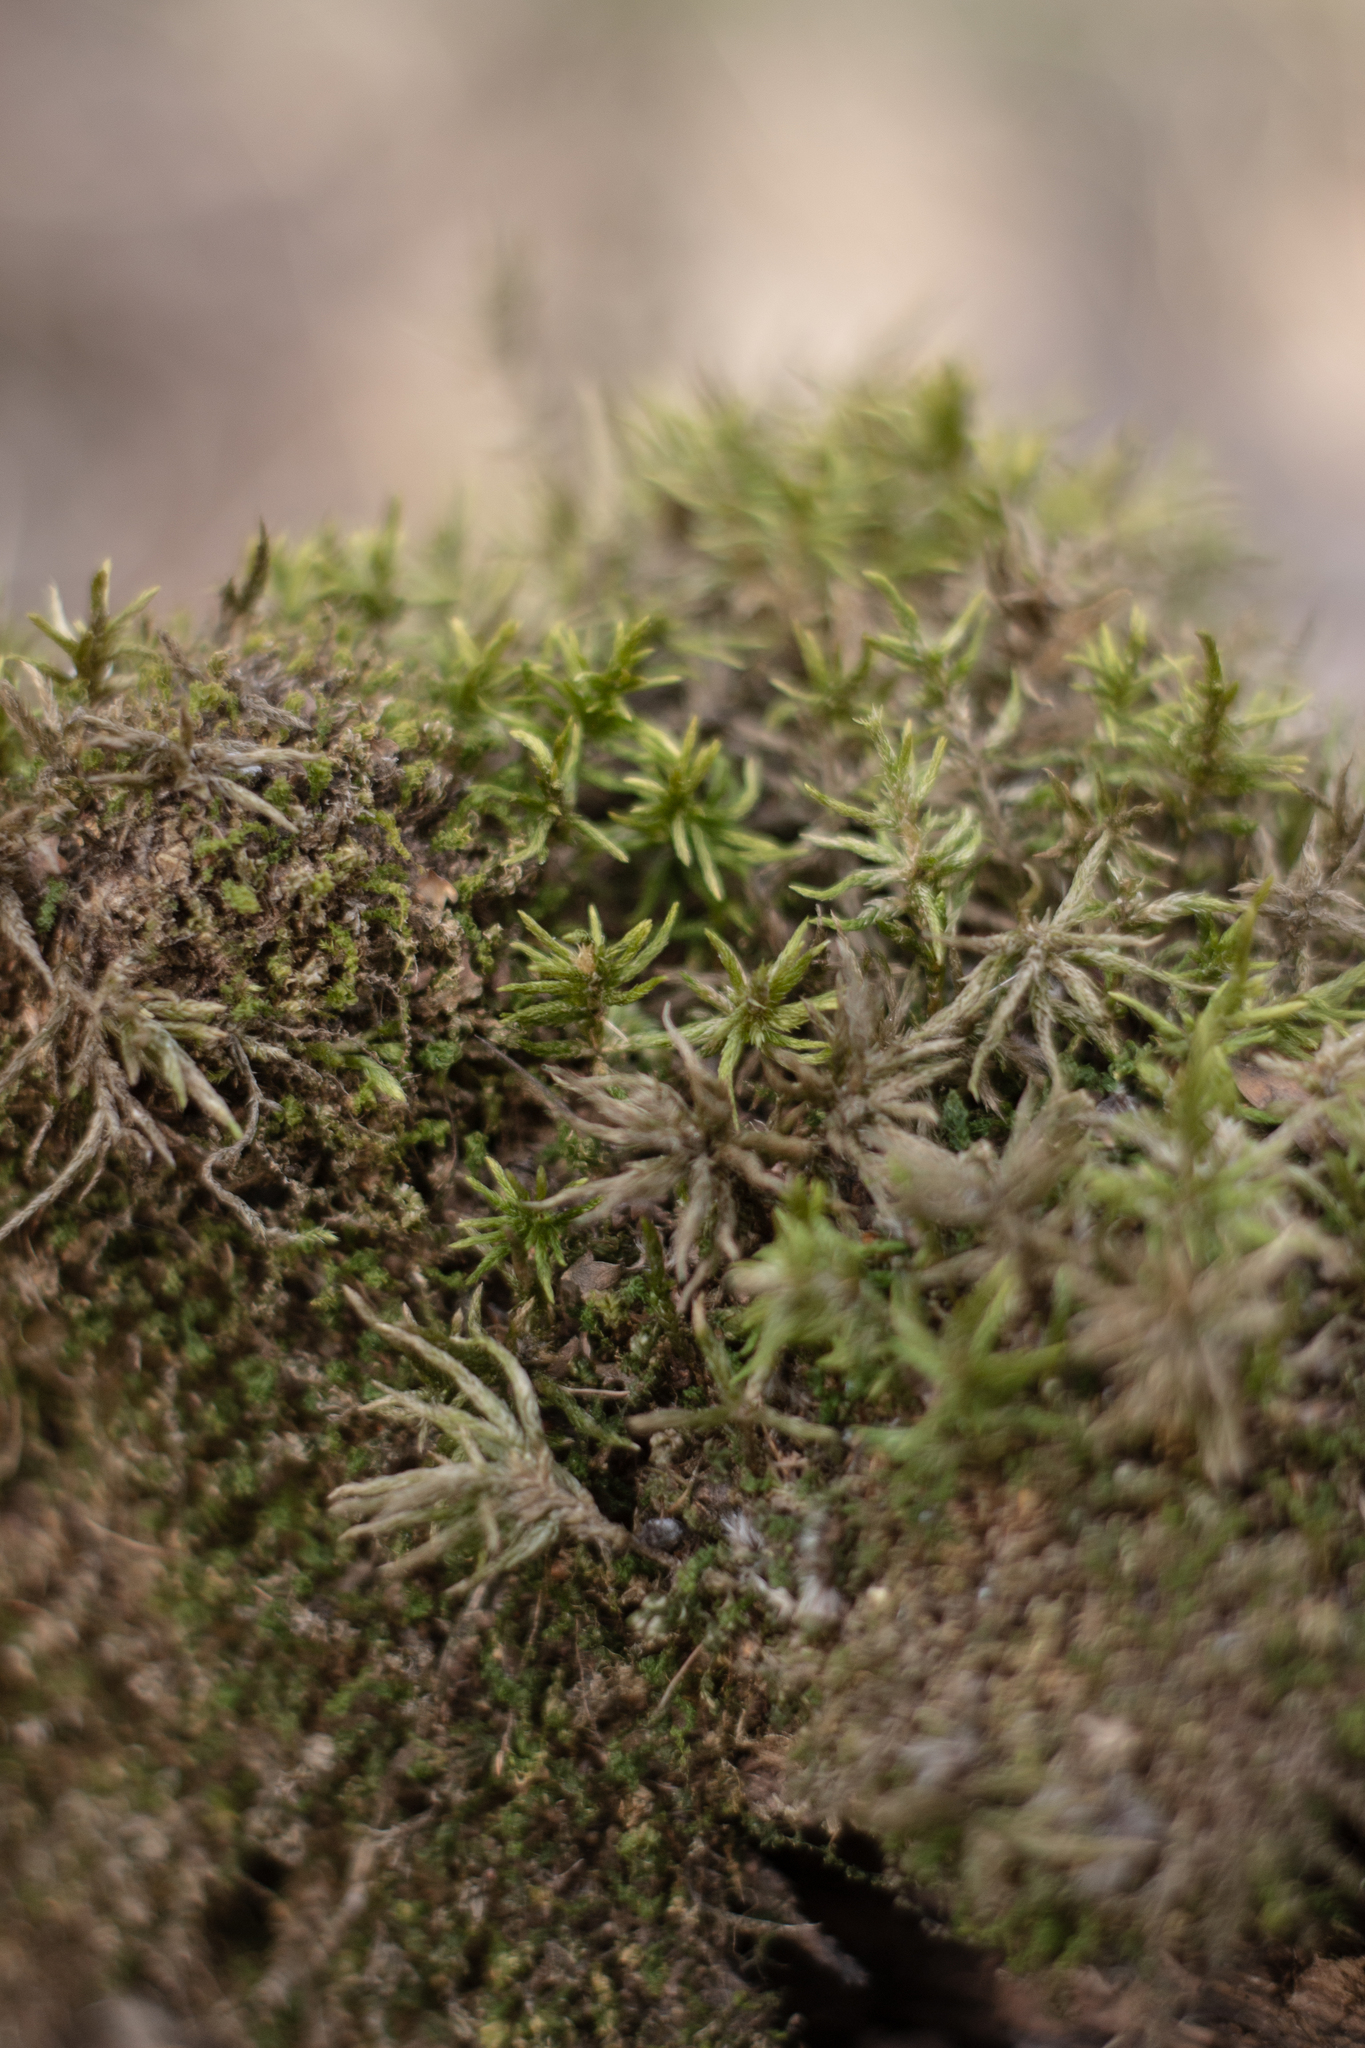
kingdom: Plantae
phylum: Bryophyta
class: Bryopsida
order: Hypnales
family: Climaciaceae
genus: Climacium
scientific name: Climacium dendroides
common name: Northern tree moss
